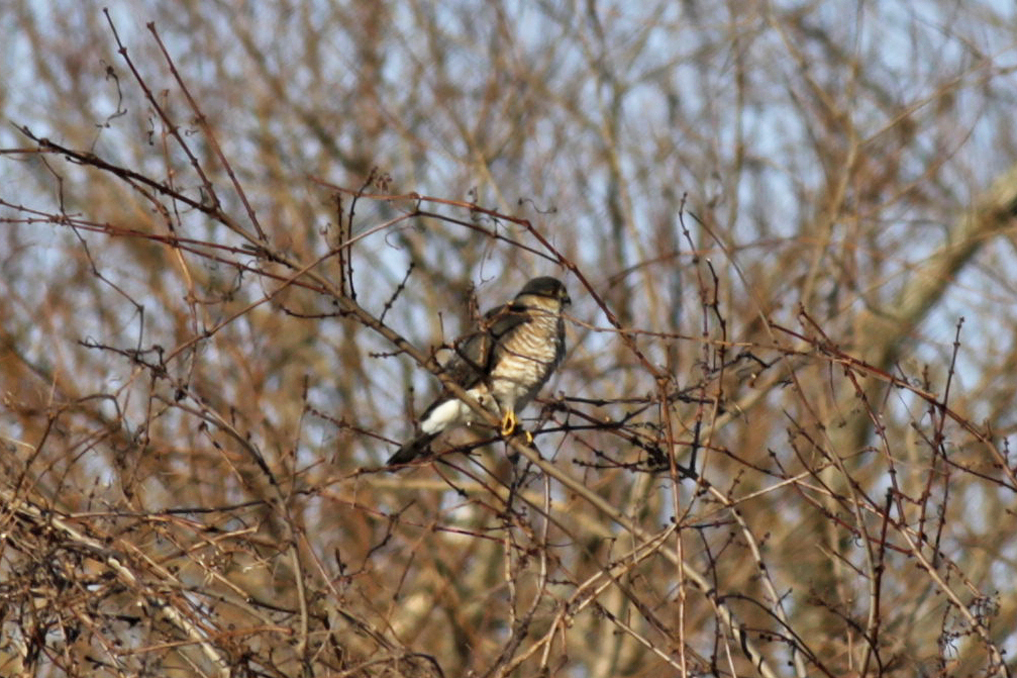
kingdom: Animalia
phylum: Chordata
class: Aves
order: Accipitriformes
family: Accipitridae
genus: Accipiter
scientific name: Accipiter striatus
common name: Sharp-shinned hawk
